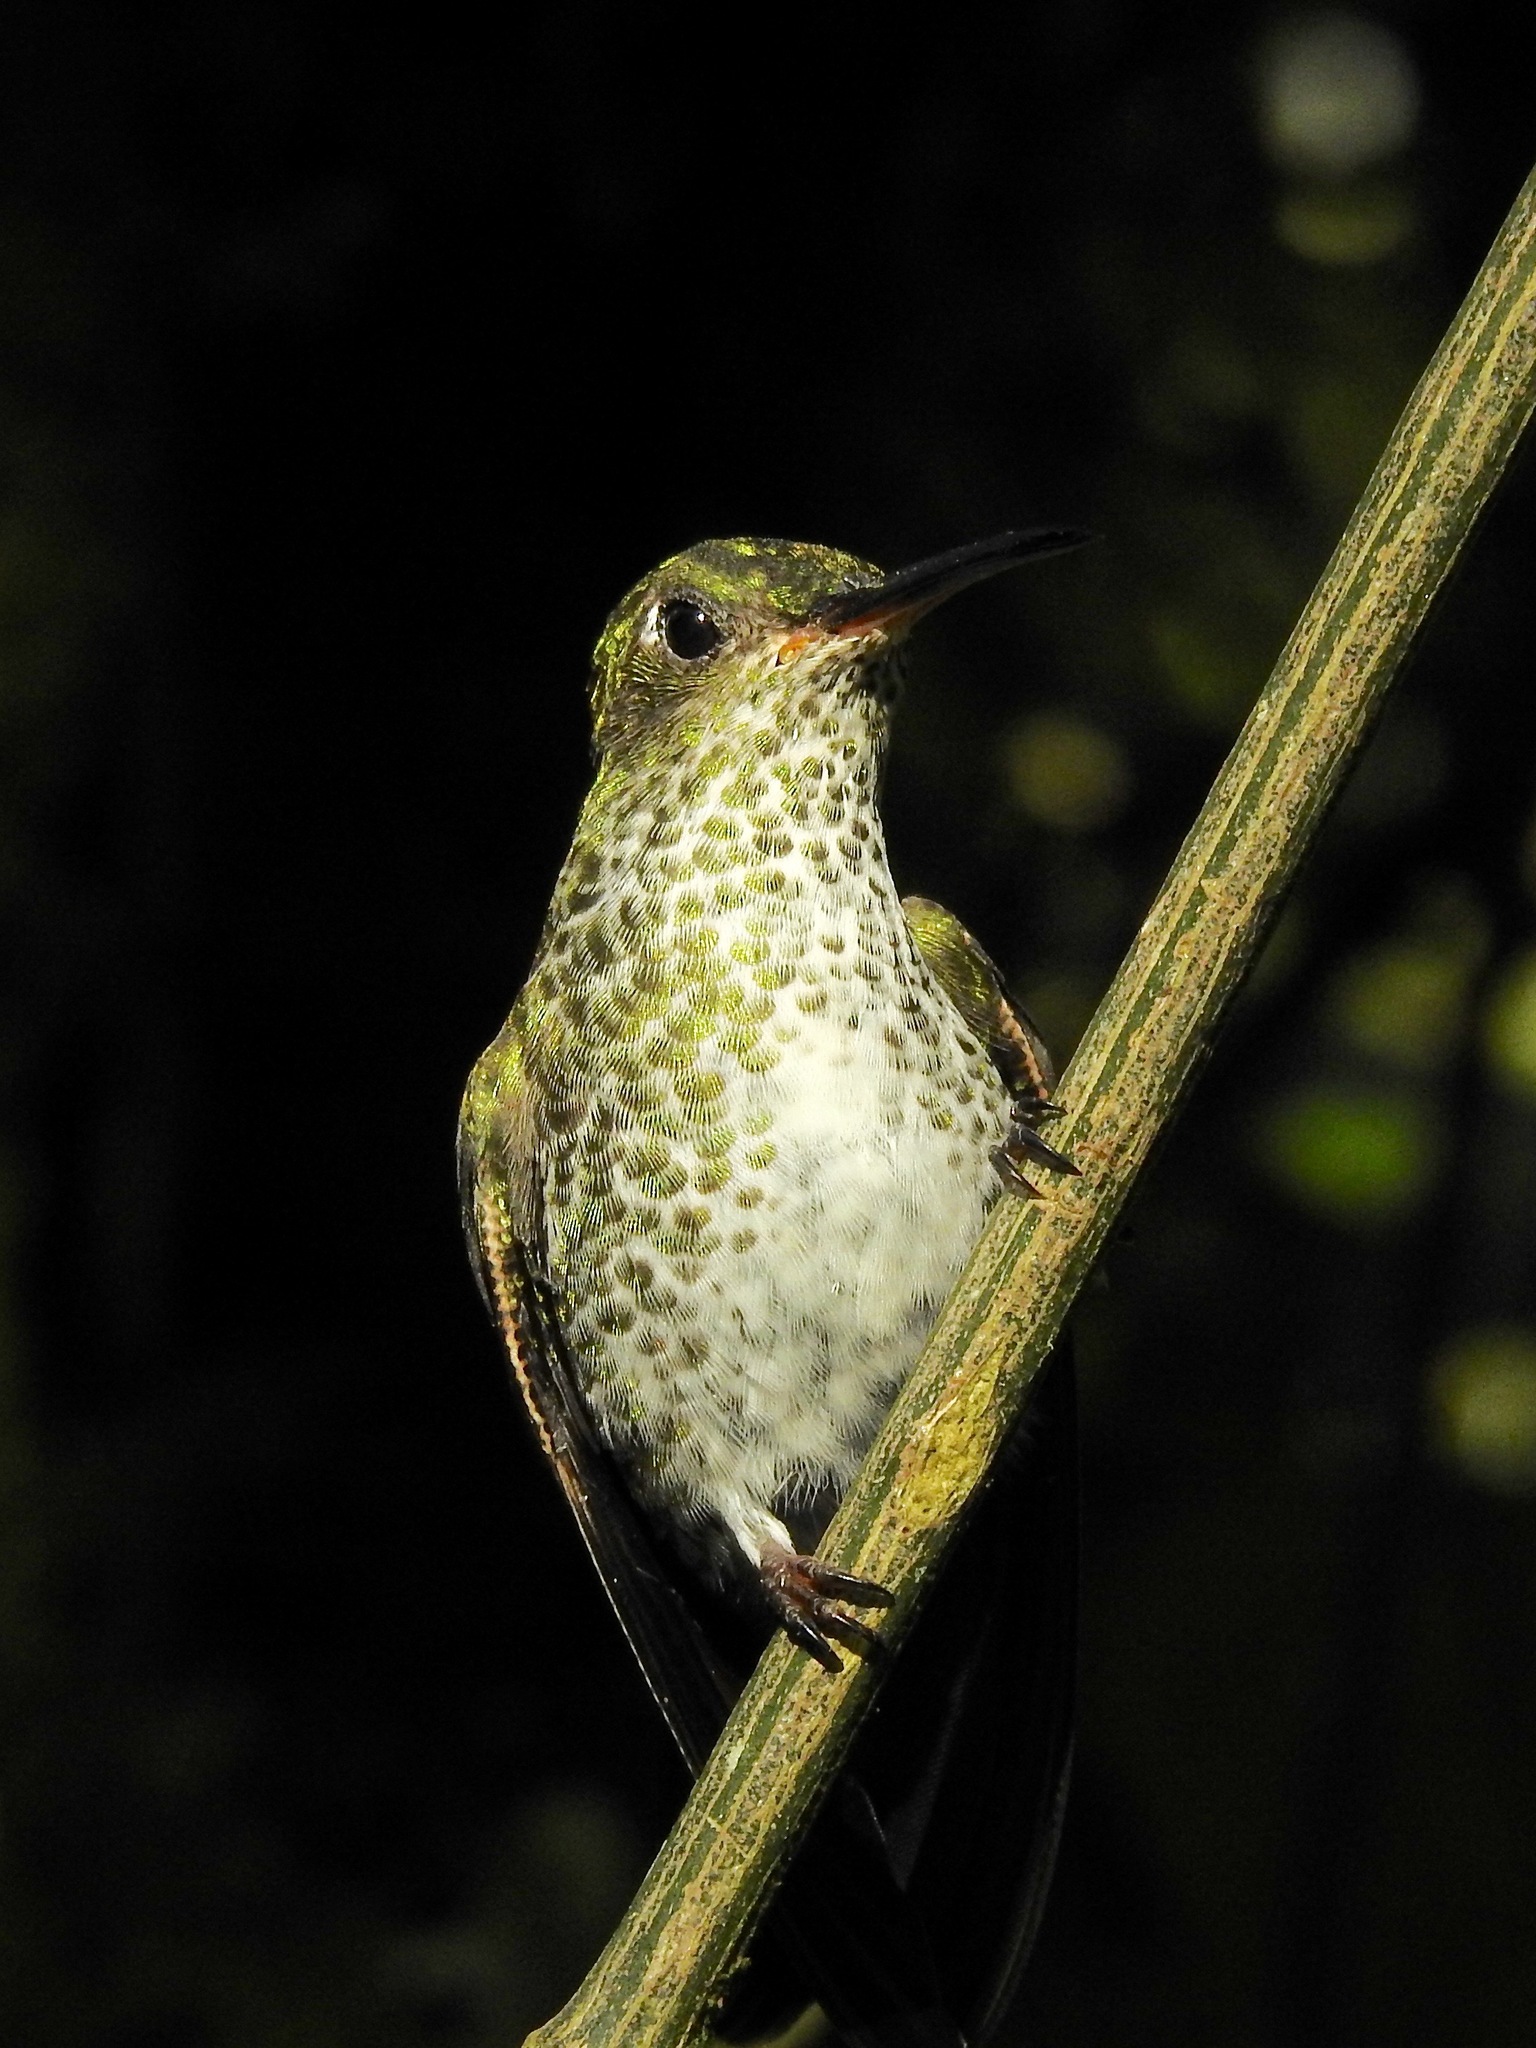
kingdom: Animalia
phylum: Chordata
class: Aves
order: Apodiformes
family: Trochilidae
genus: Taphrospilus
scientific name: Taphrospilus hypostictus
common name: Many-spotted hummingbird
